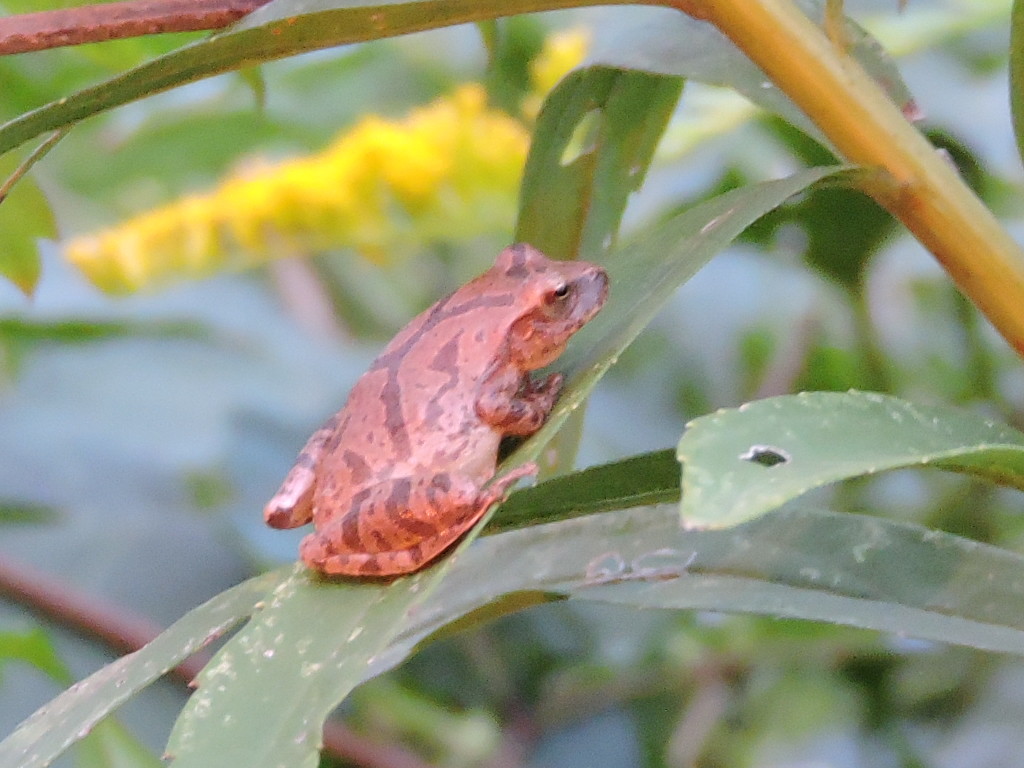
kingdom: Animalia
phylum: Chordata
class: Amphibia
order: Anura
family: Hylidae
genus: Pseudacris
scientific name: Pseudacris crucifer
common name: Spring peeper
